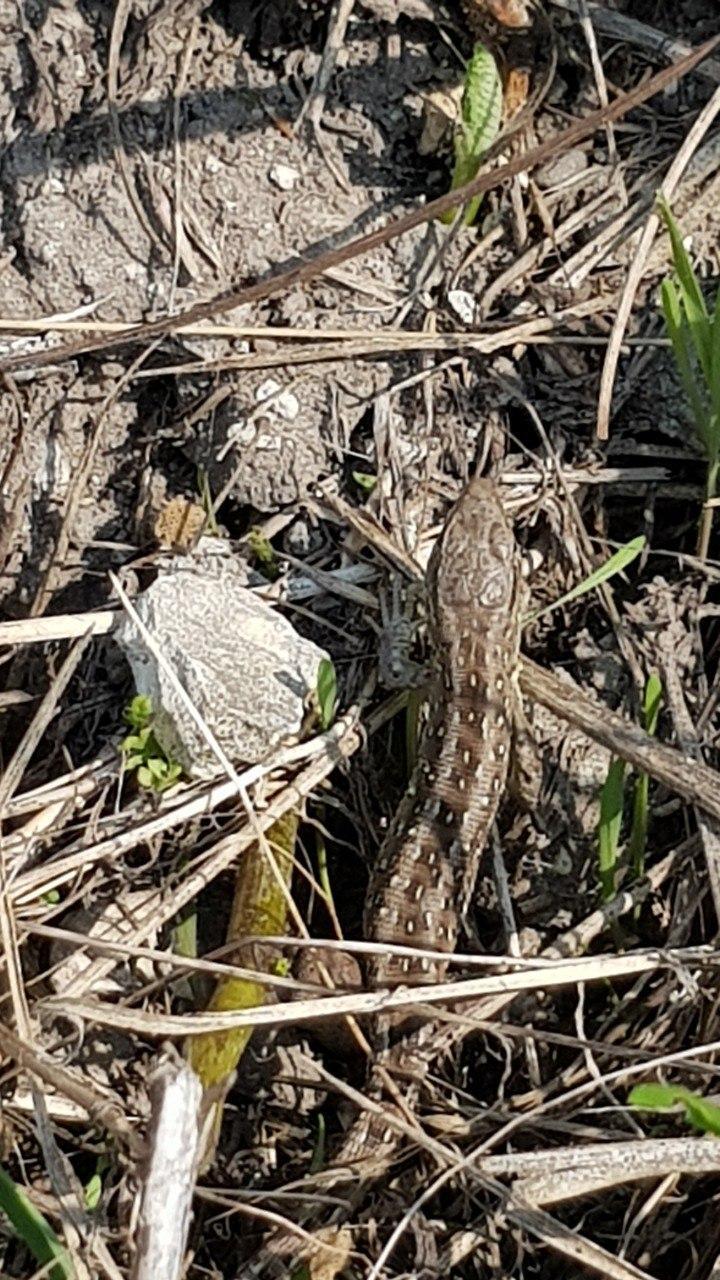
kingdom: Animalia
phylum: Chordata
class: Squamata
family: Lacertidae
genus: Lacerta
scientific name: Lacerta agilis
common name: Sand lizard
